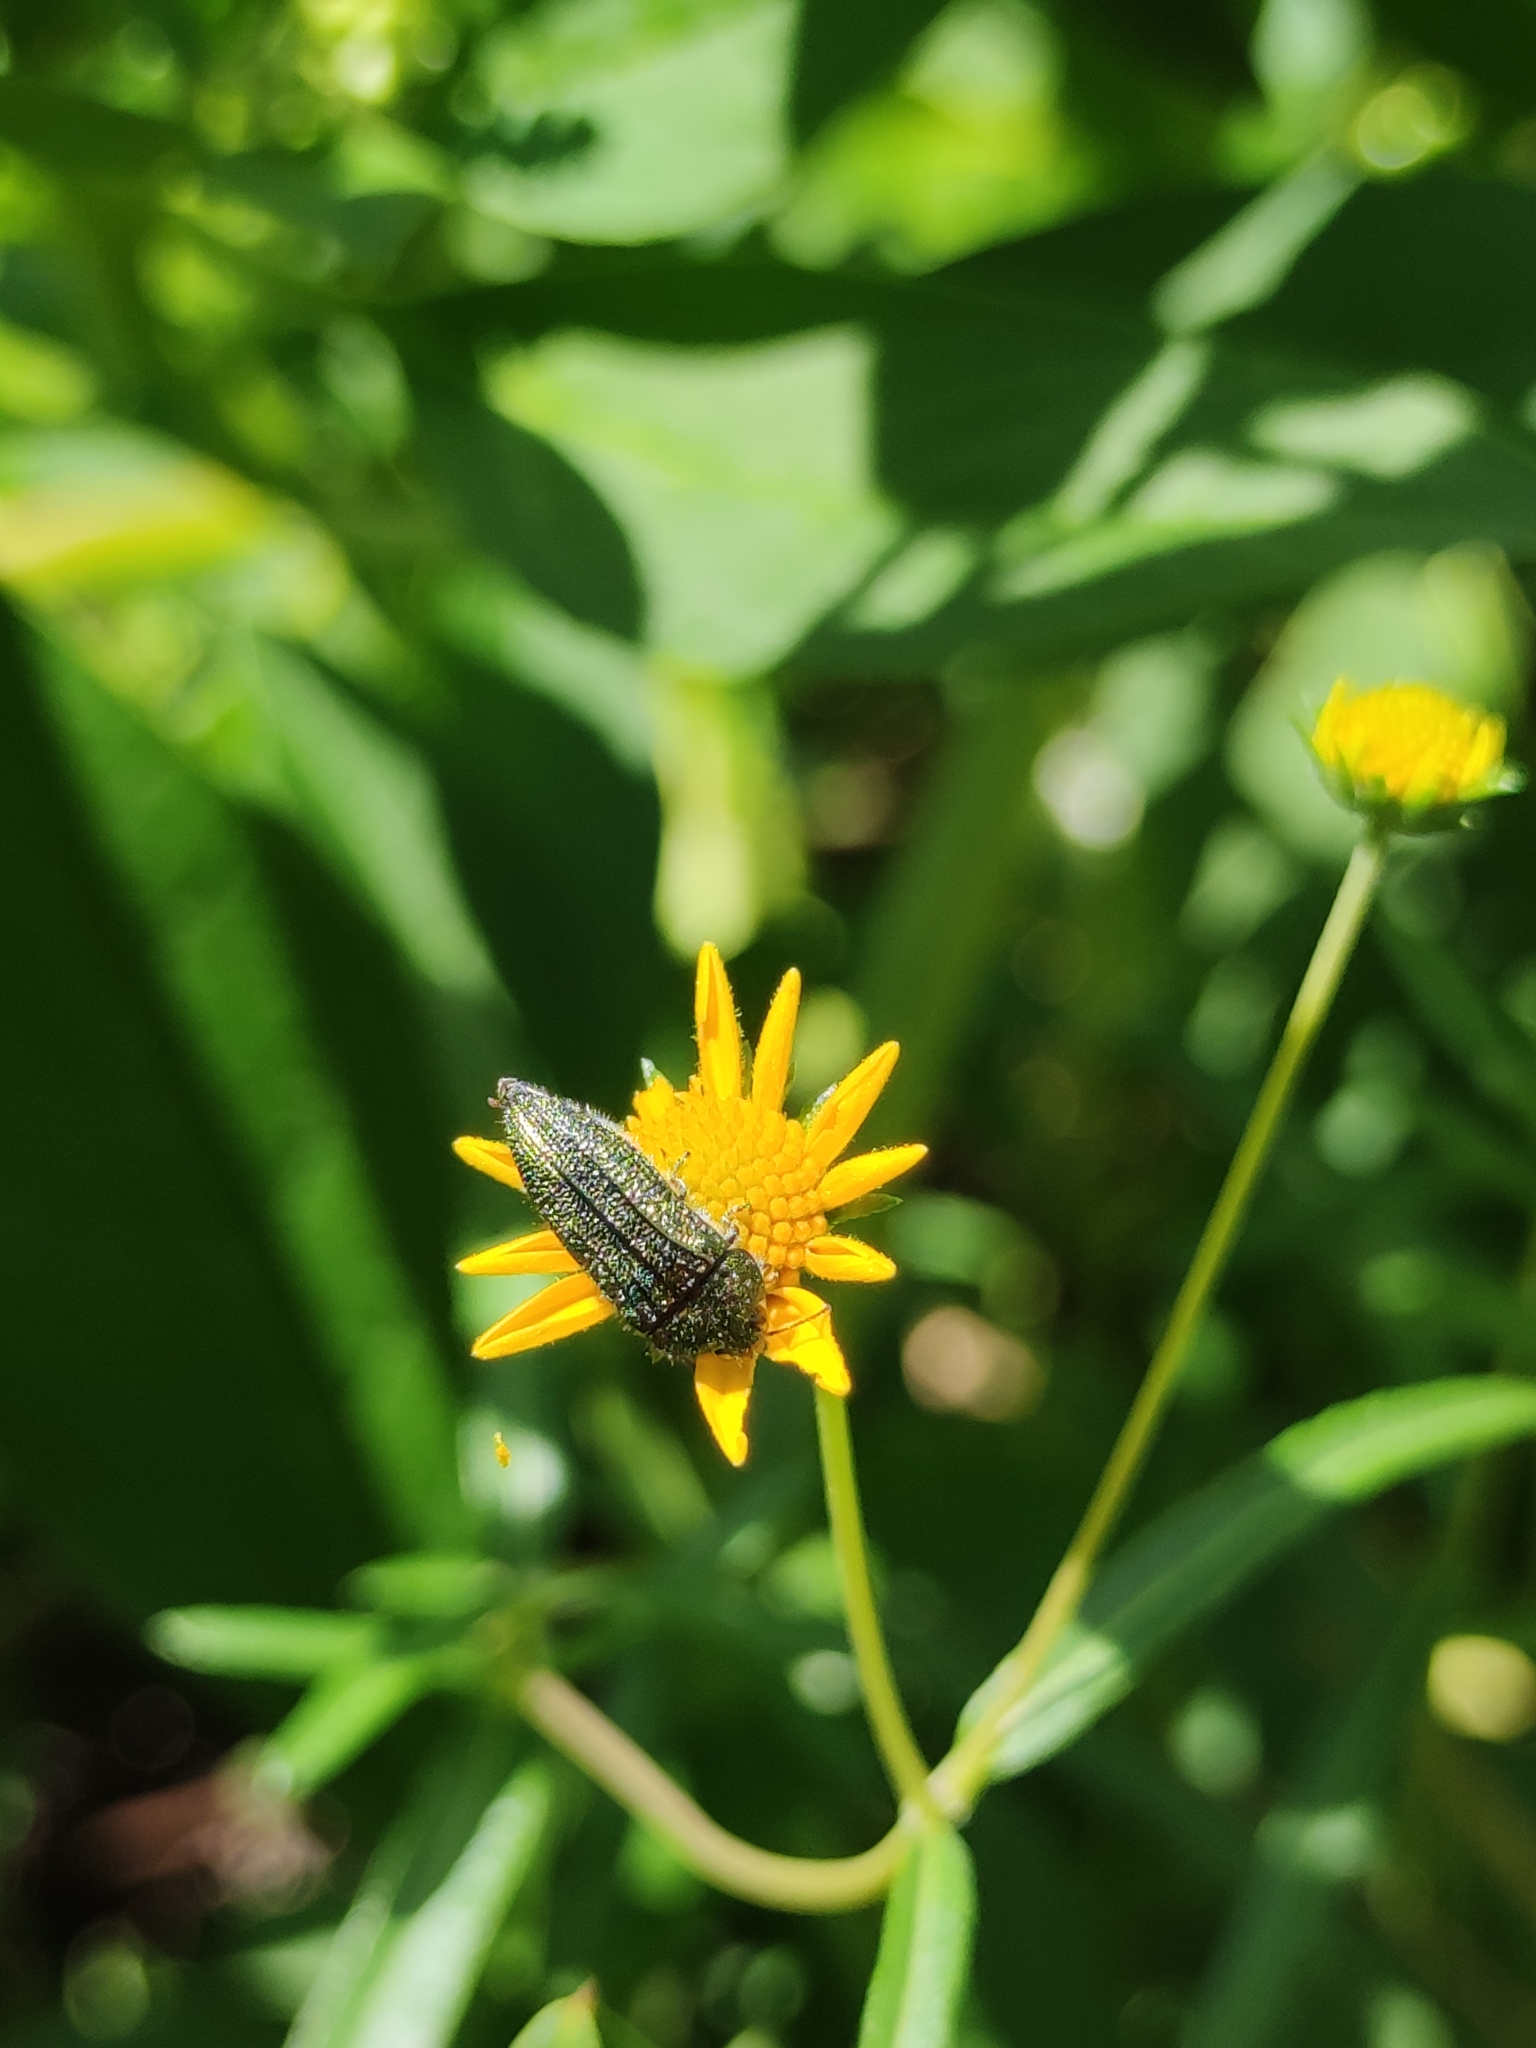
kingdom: Animalia
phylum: Arthropoda
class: Insecta
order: Coleoptera
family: Buprestidae
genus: Acmaeodera
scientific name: Acmaeodera resplendens
